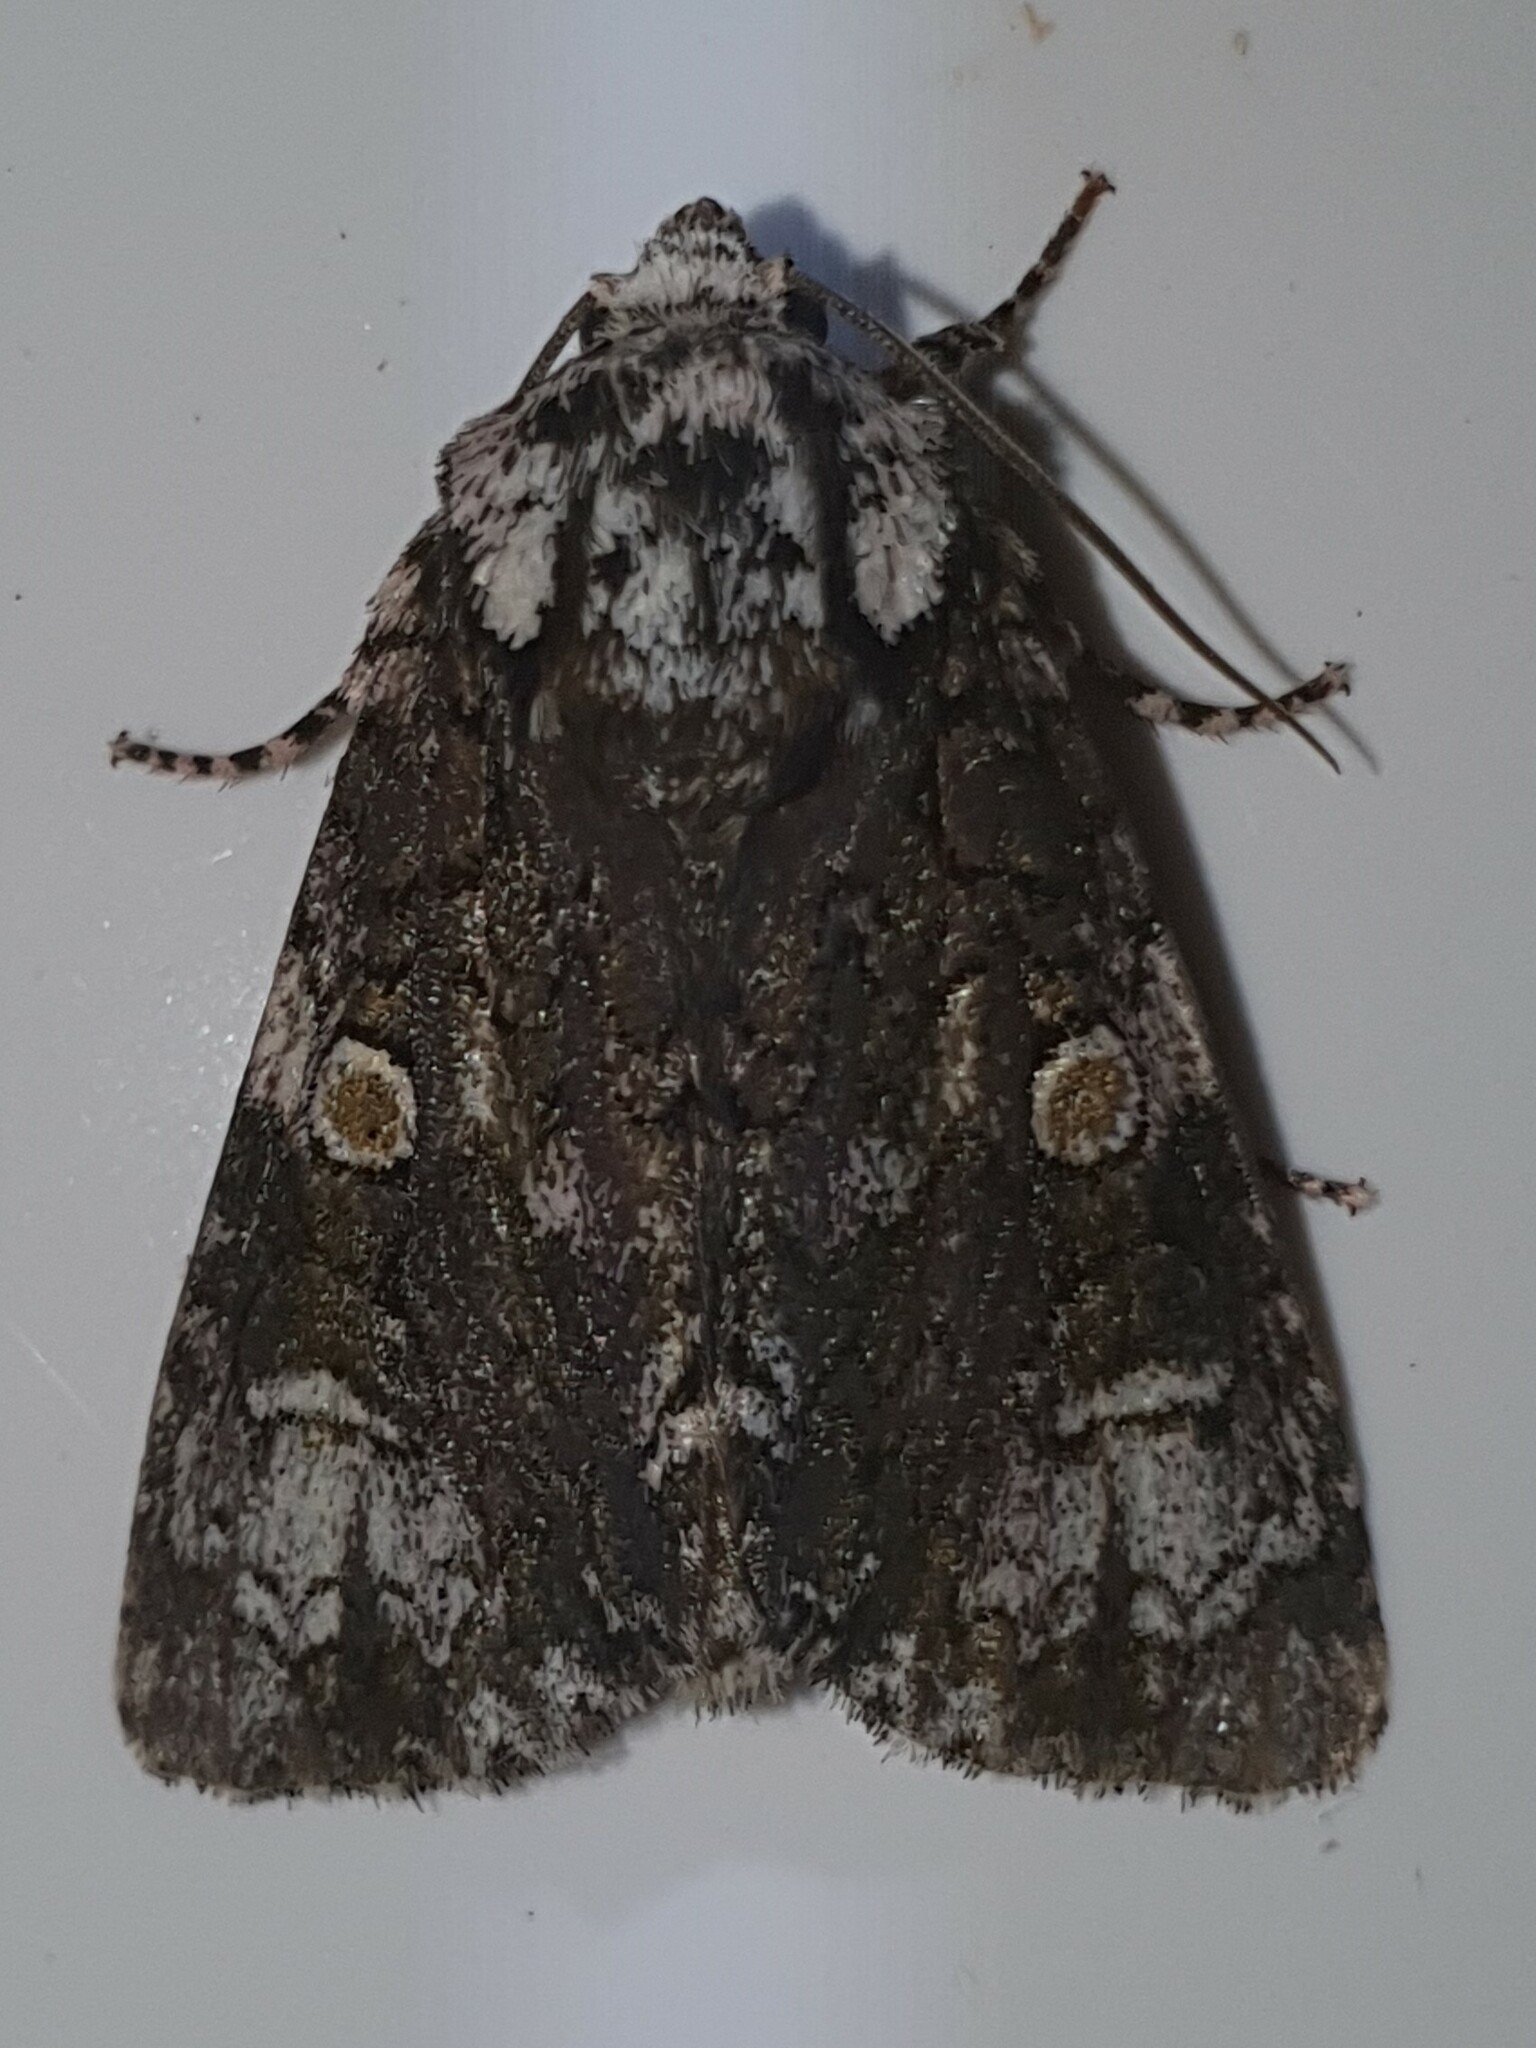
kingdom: Animalia
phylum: Arthropoda
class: Insecta
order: Lepidoptera
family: Noctuidae
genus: Craniophora
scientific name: Craniophora ligustri
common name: Coronet
